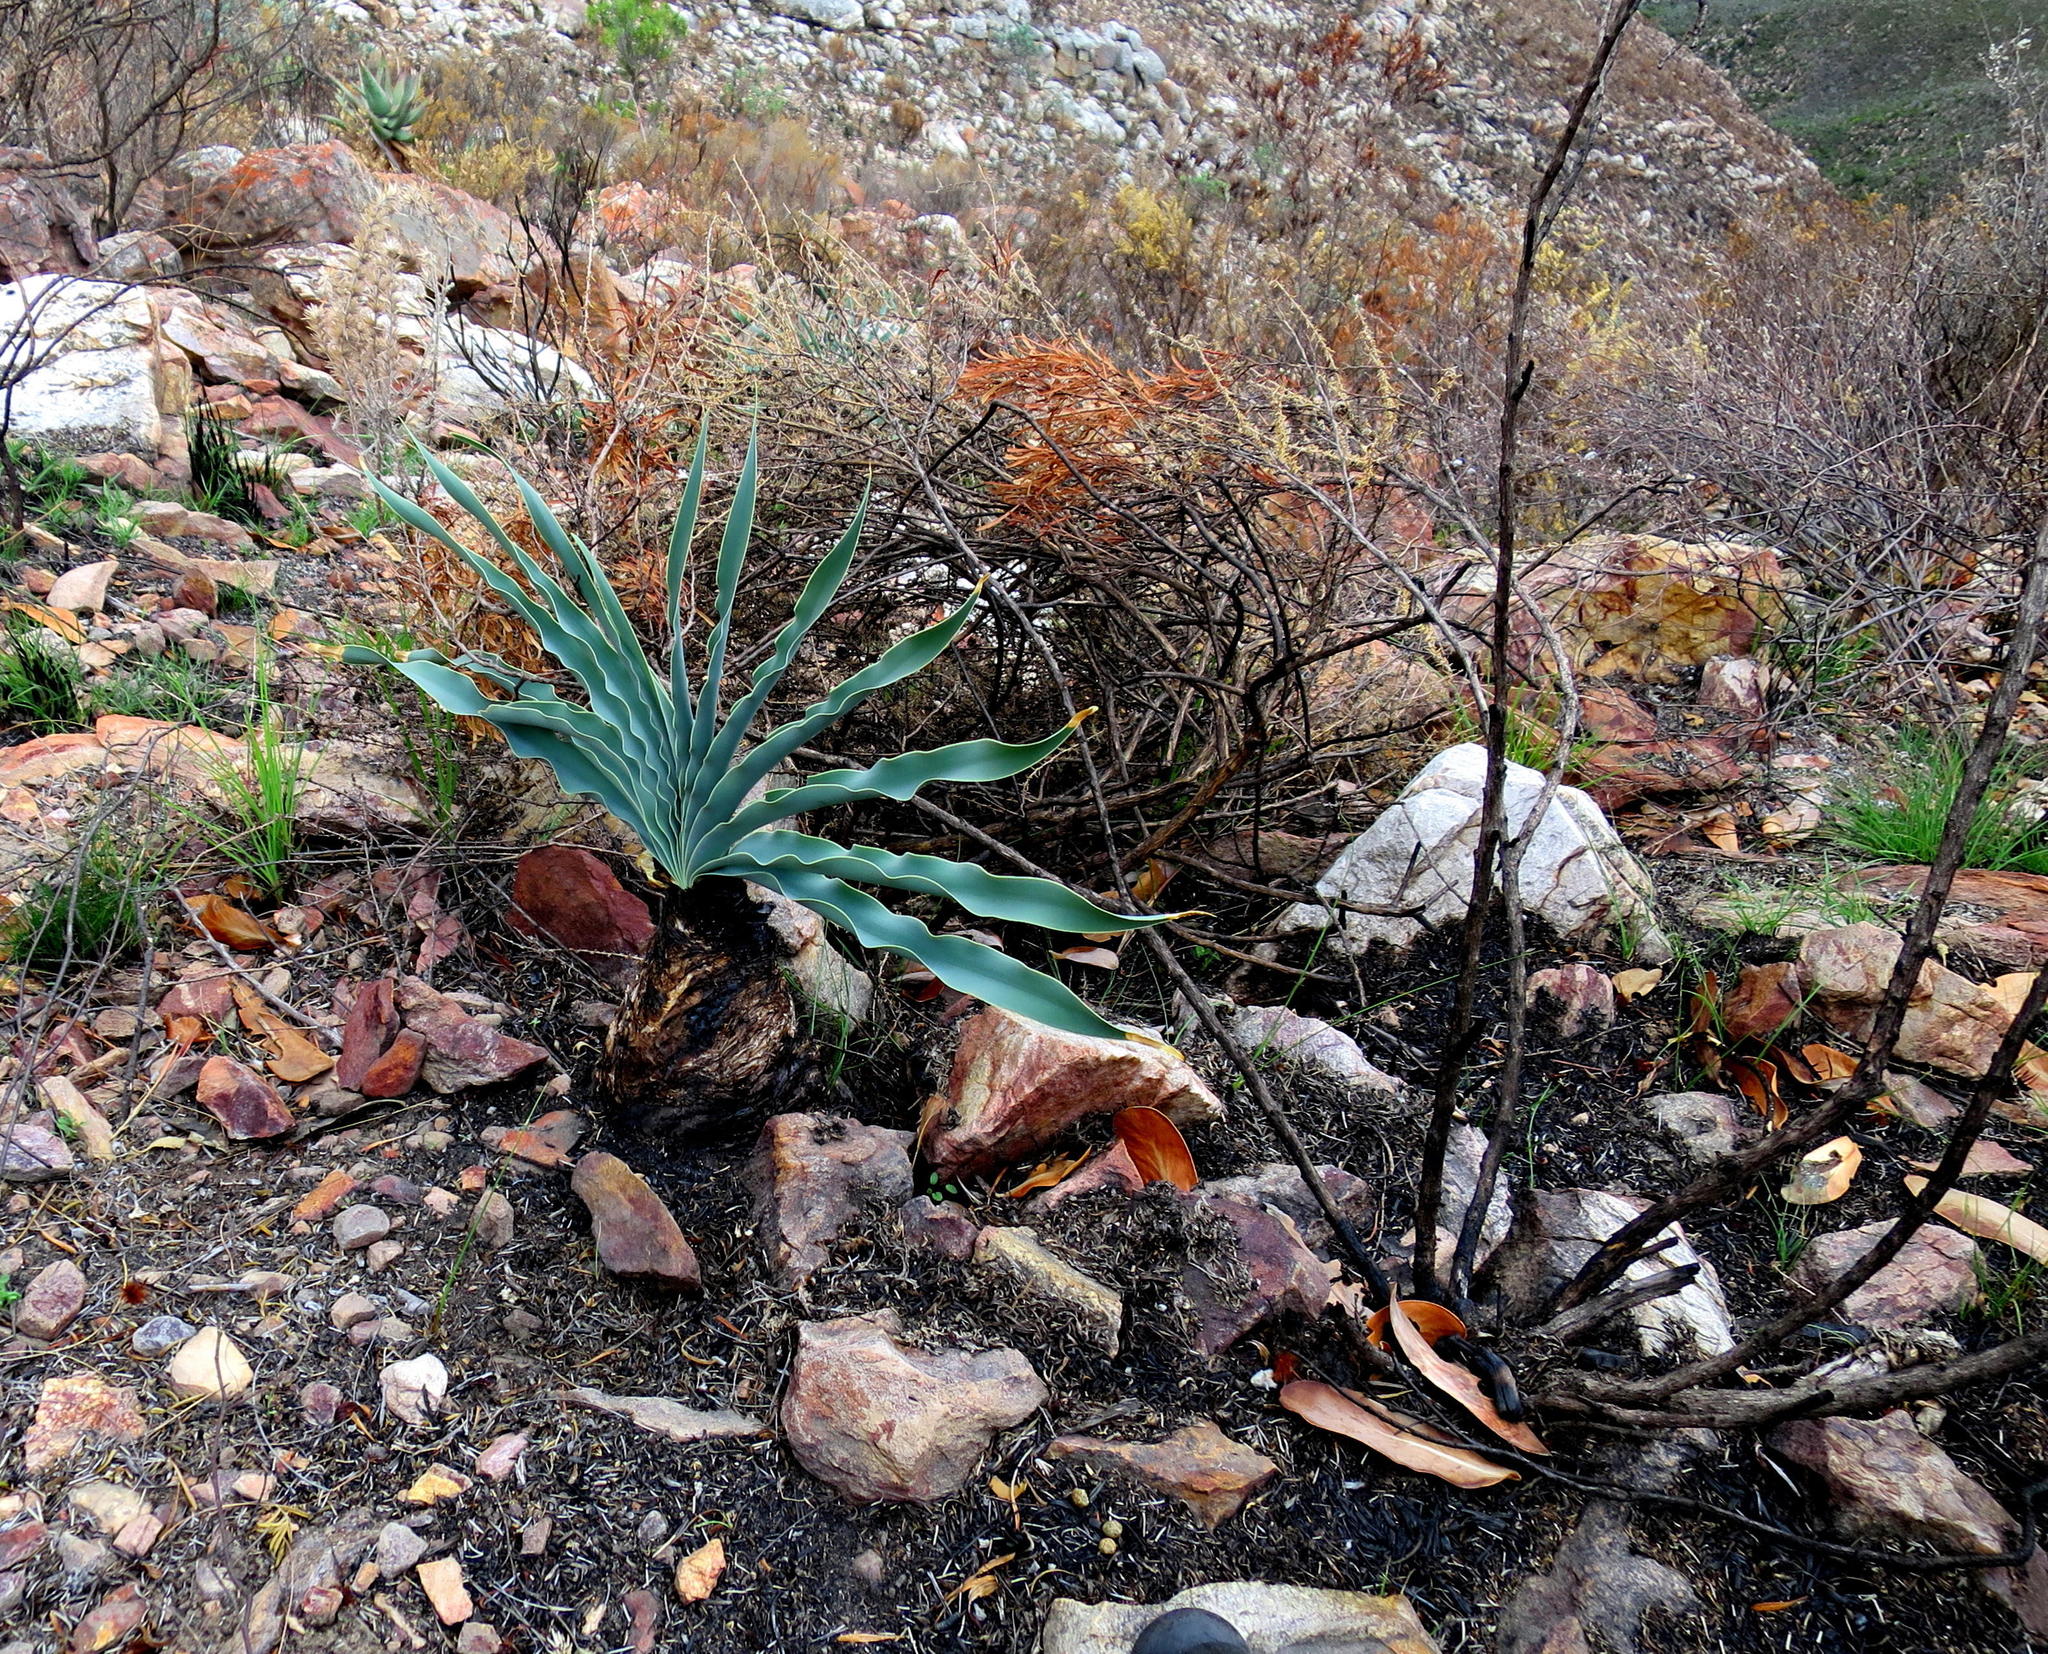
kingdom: Plantae
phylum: Tracheophyta
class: Liliopsida
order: Asparagales
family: Amaryllidaceae
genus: Boophone
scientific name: Boophone disticha
